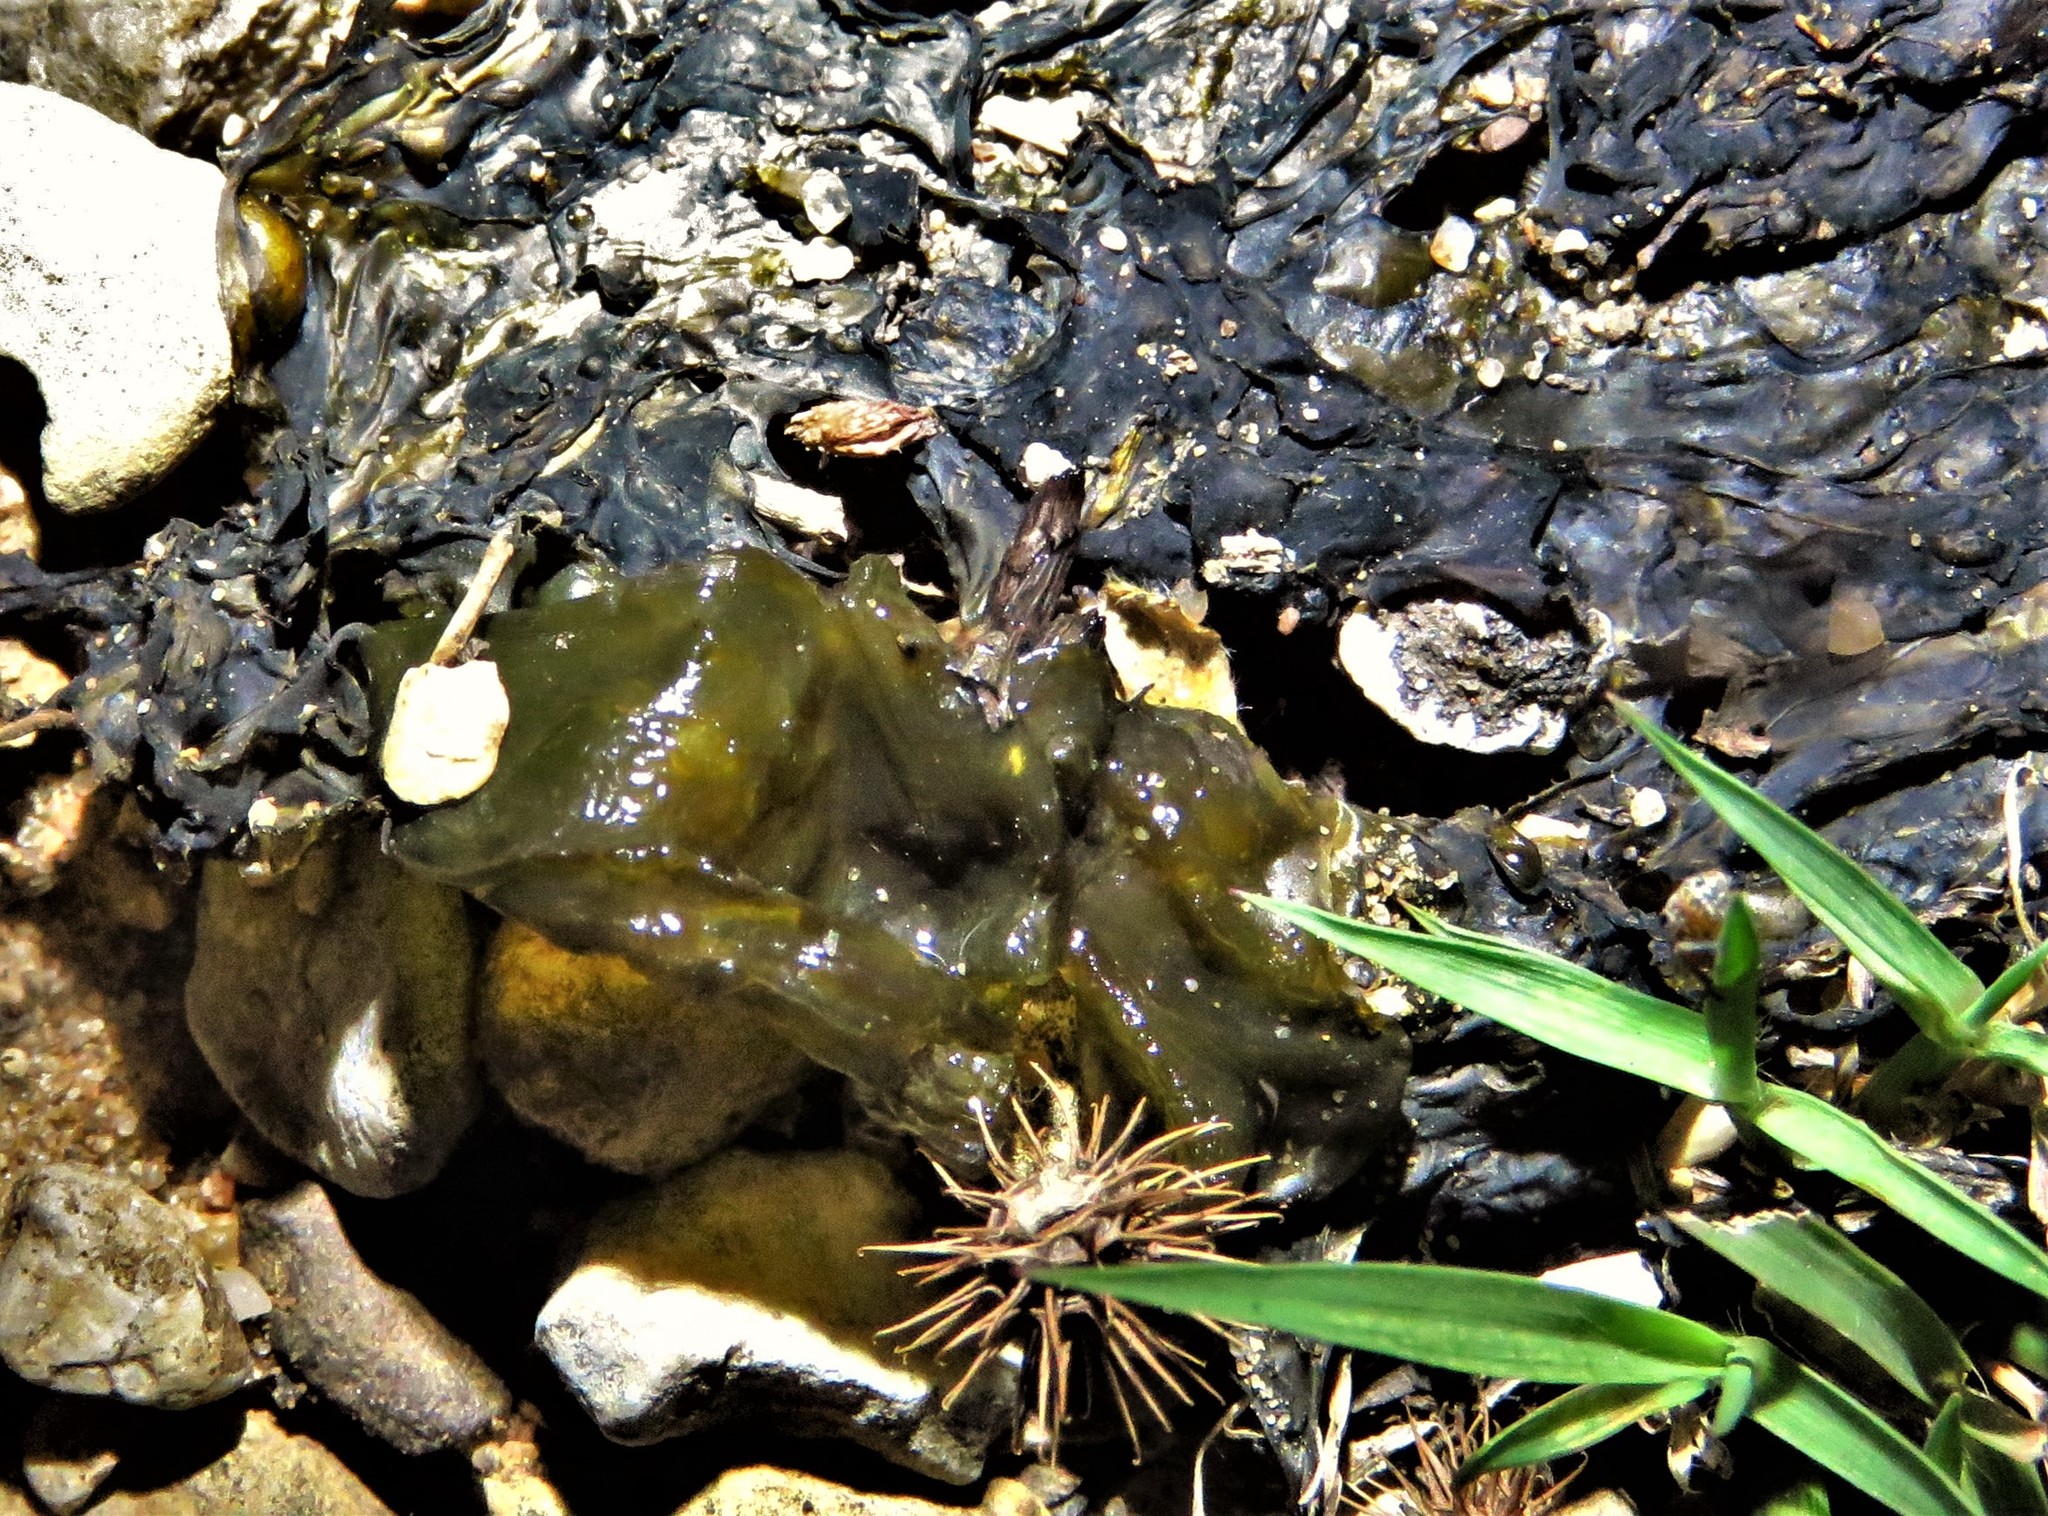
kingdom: Bacteria
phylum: Cyanobacteria
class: Cyanobacteriia
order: Cyanobacteriales
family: Nostocaceae
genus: Nostoc
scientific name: Nostoc commune
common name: Star jelly
